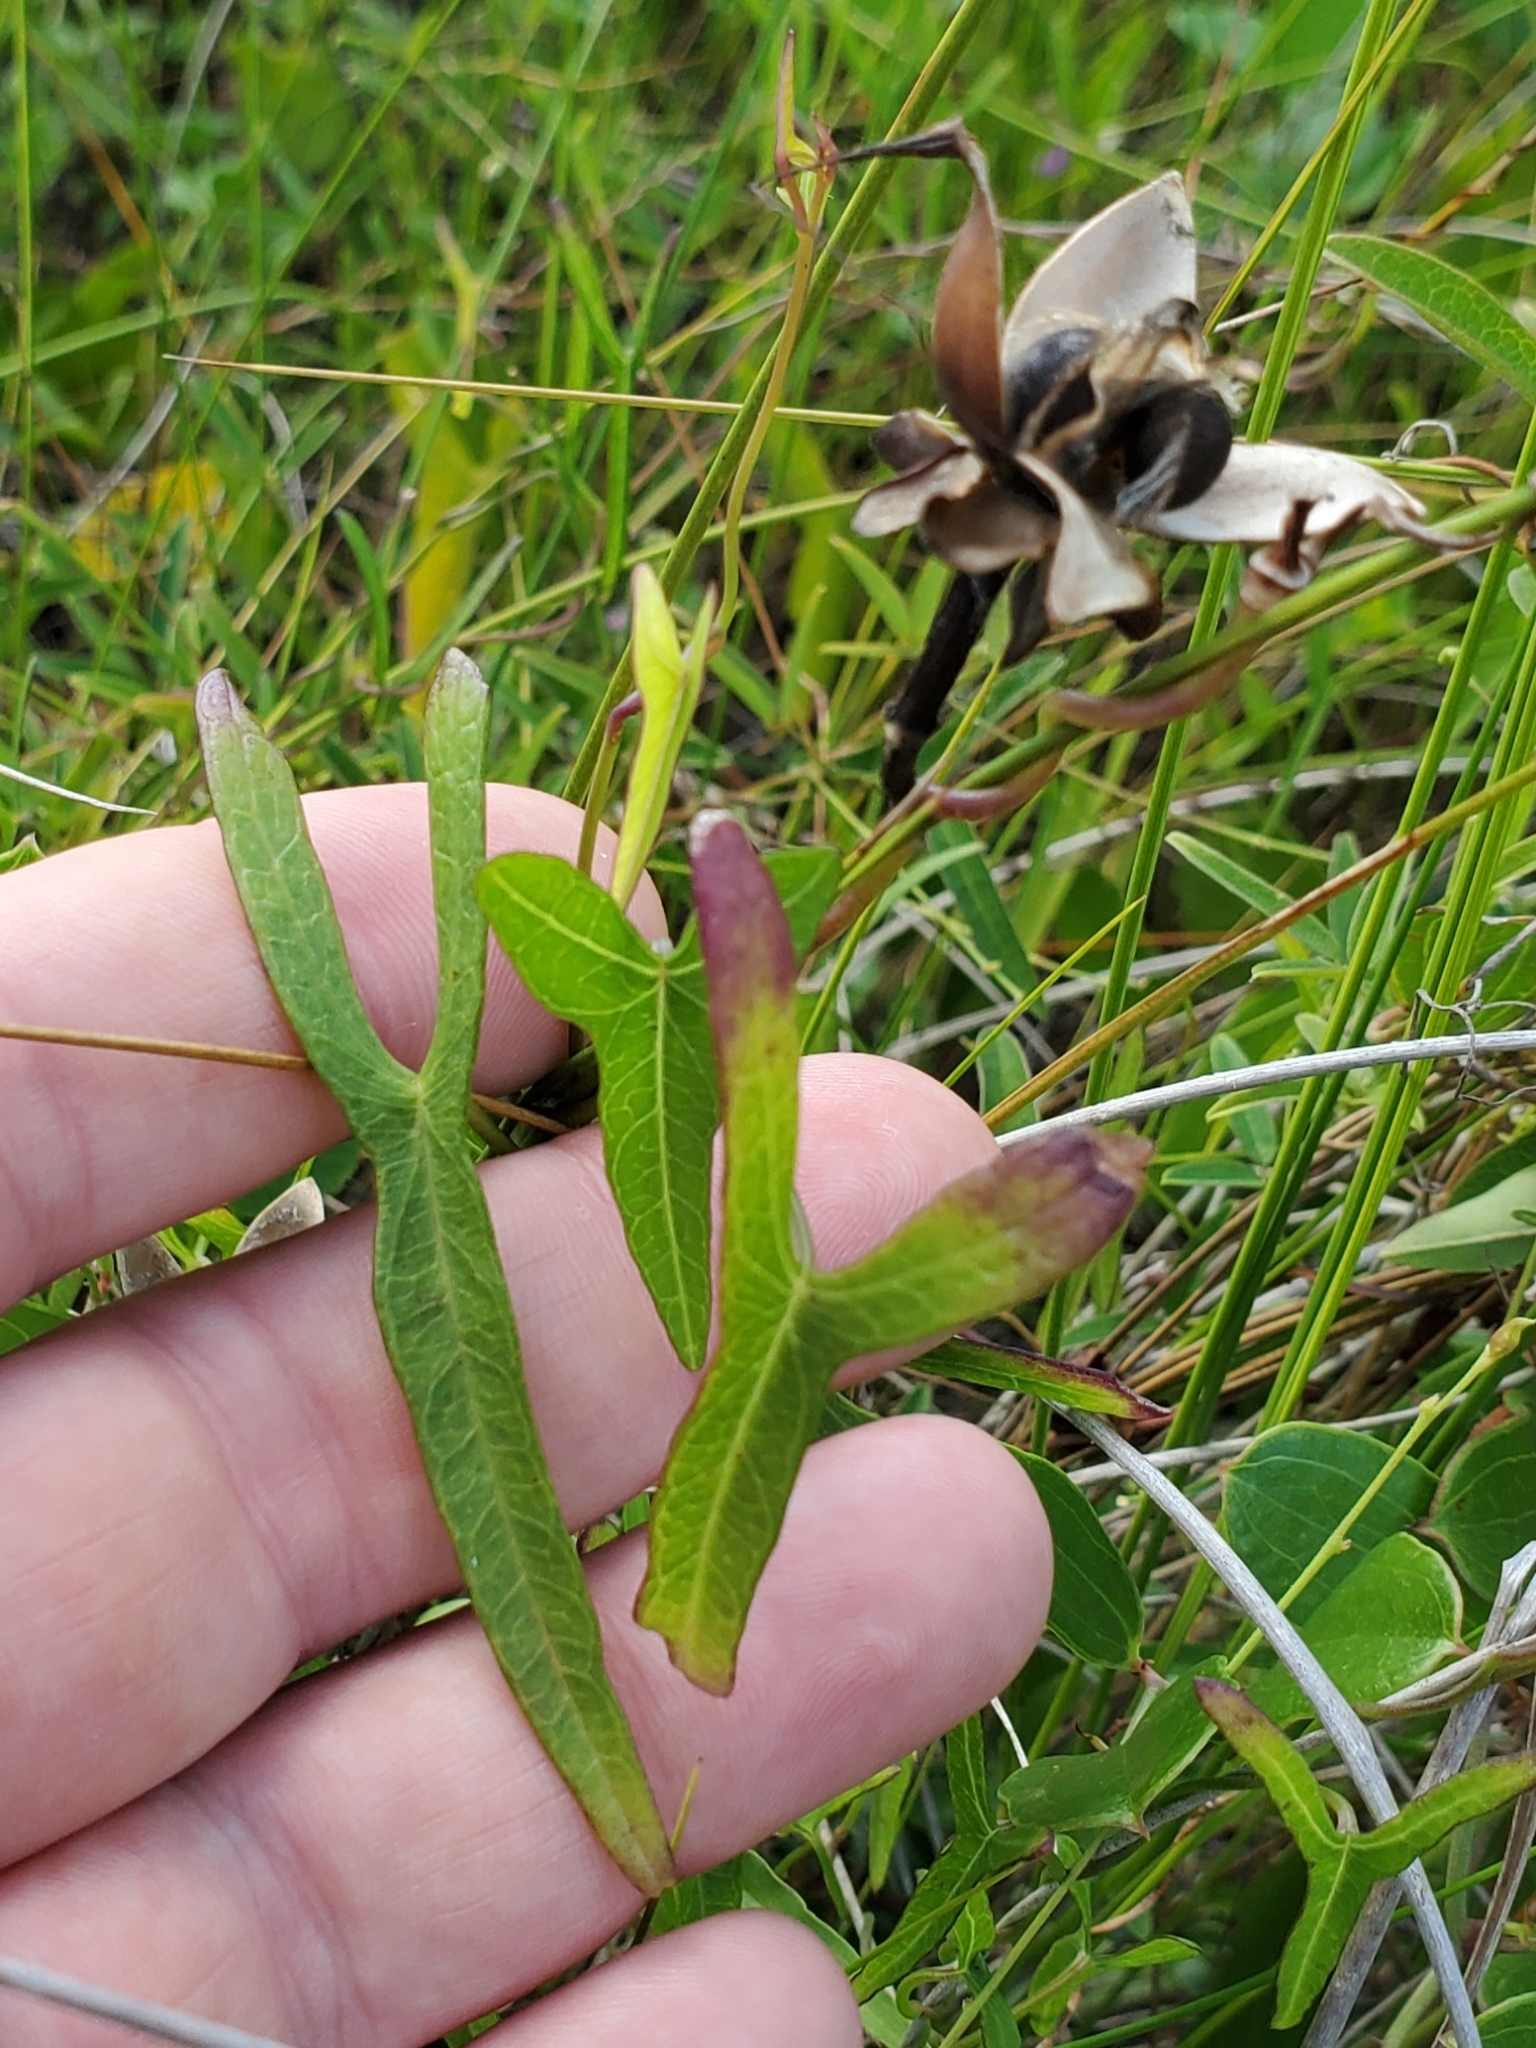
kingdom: Plantae
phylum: Tracheophyta
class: Magnoliopsida
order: Solanales
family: Convolvulaceae
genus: Ipomoea
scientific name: Ipomoea sagittata
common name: Saltmarsh morning glory
